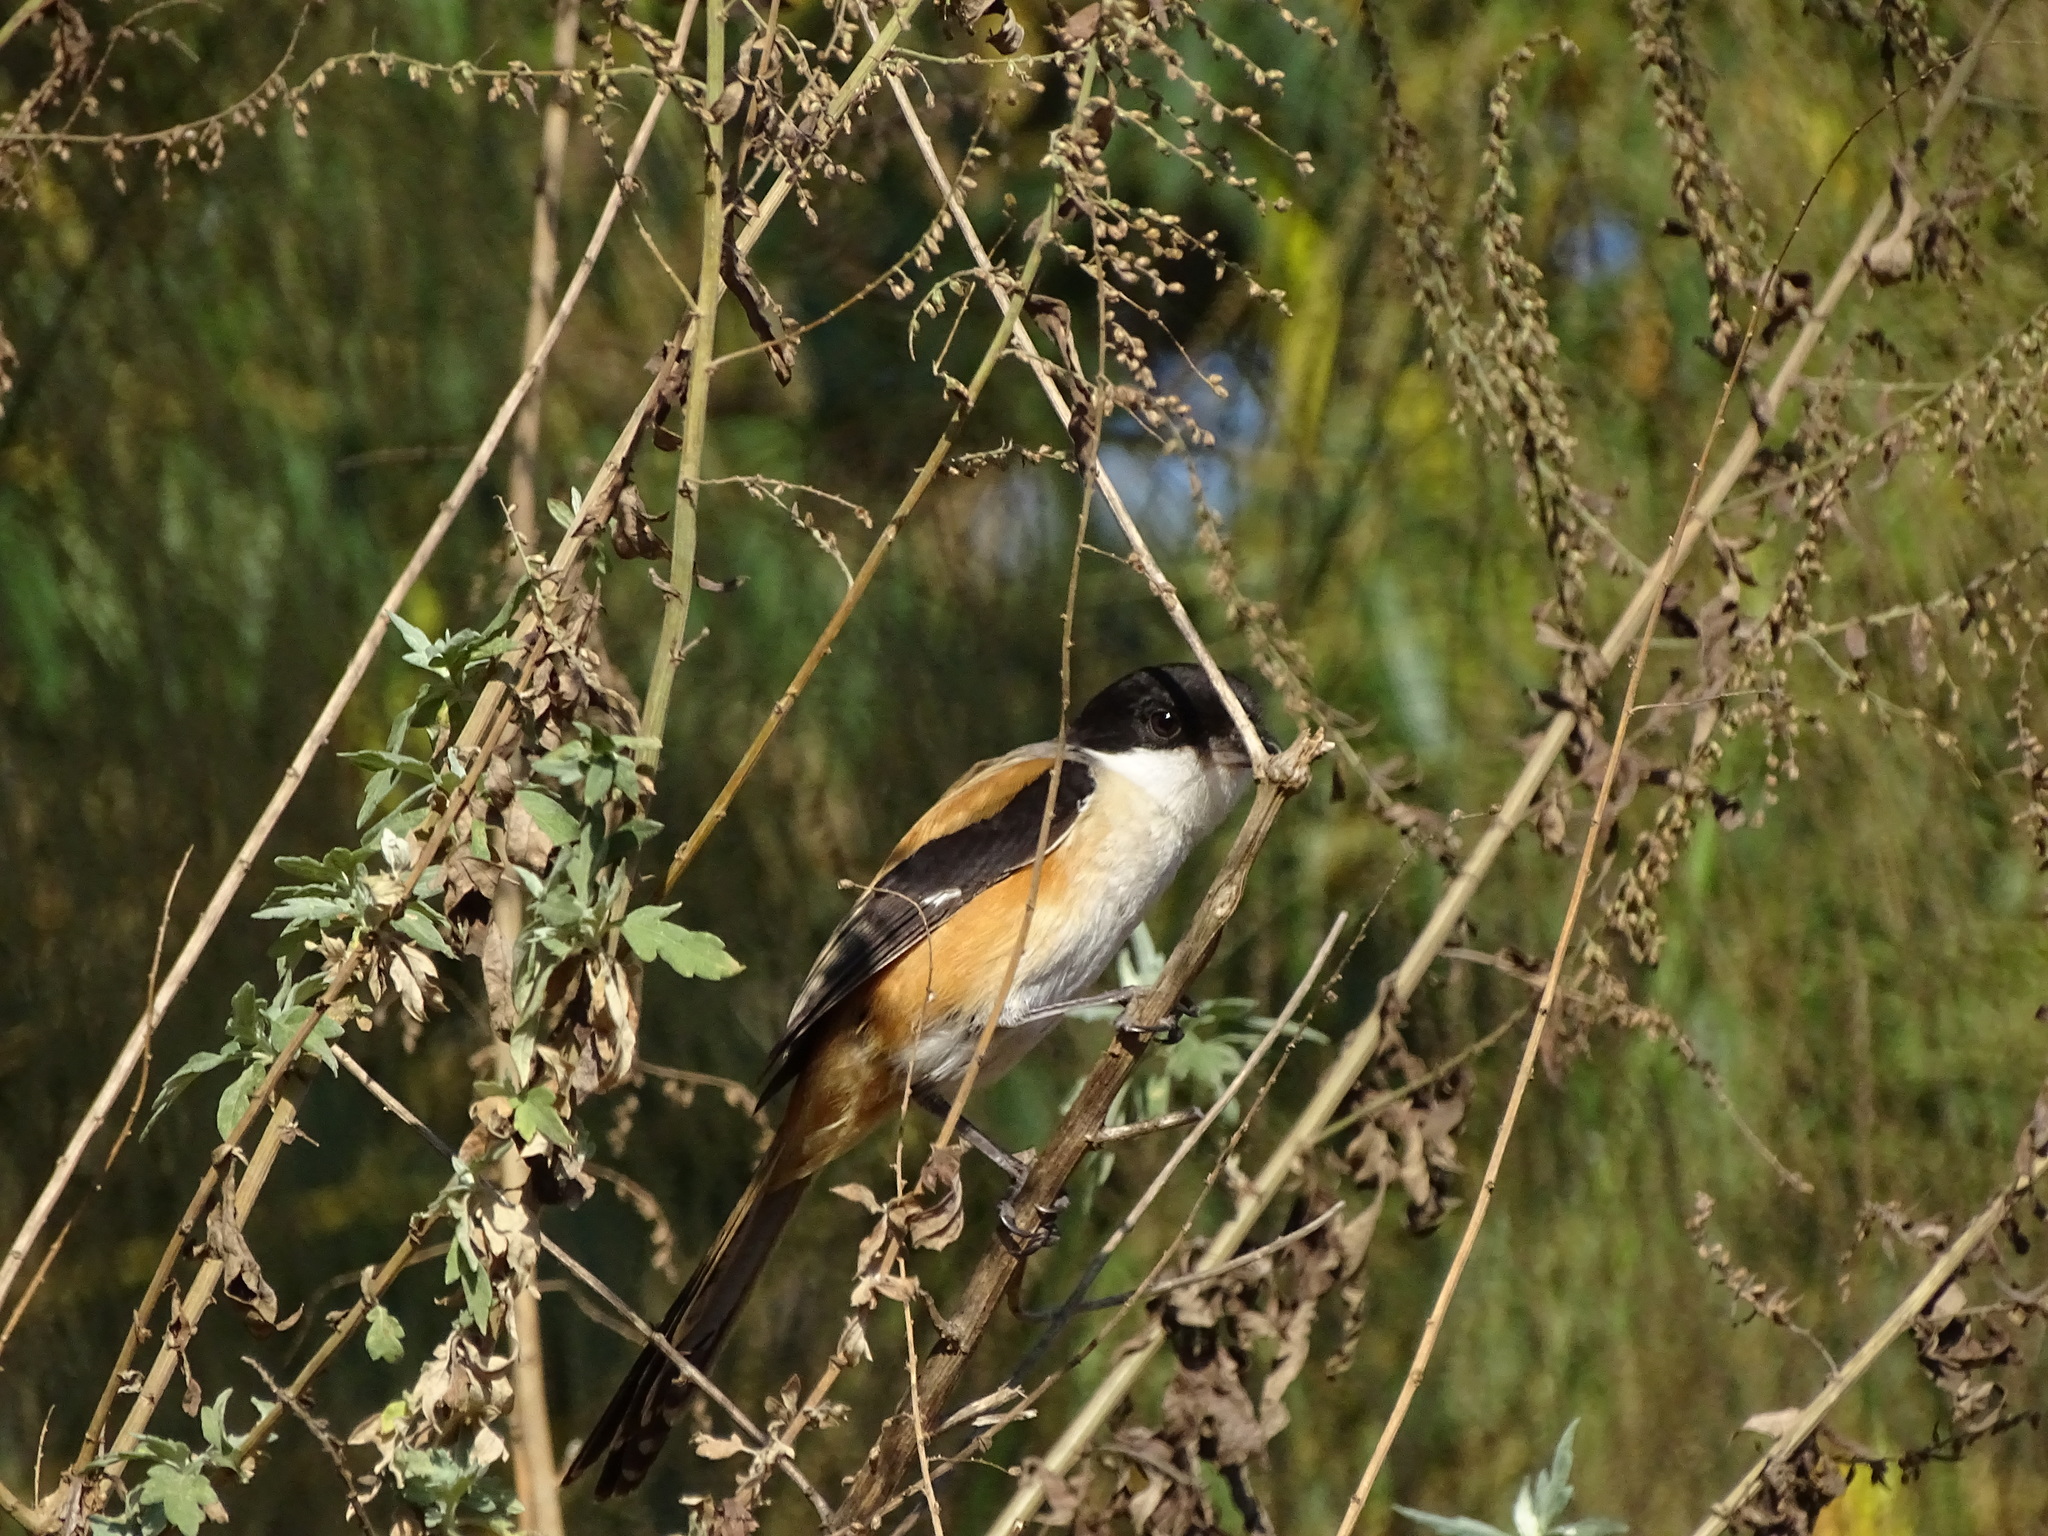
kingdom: Animalia
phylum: Chordata
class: Aves
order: Passeriformes
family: Laniidae
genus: Lanius
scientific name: Lanius schach
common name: Long-tailed shrike
